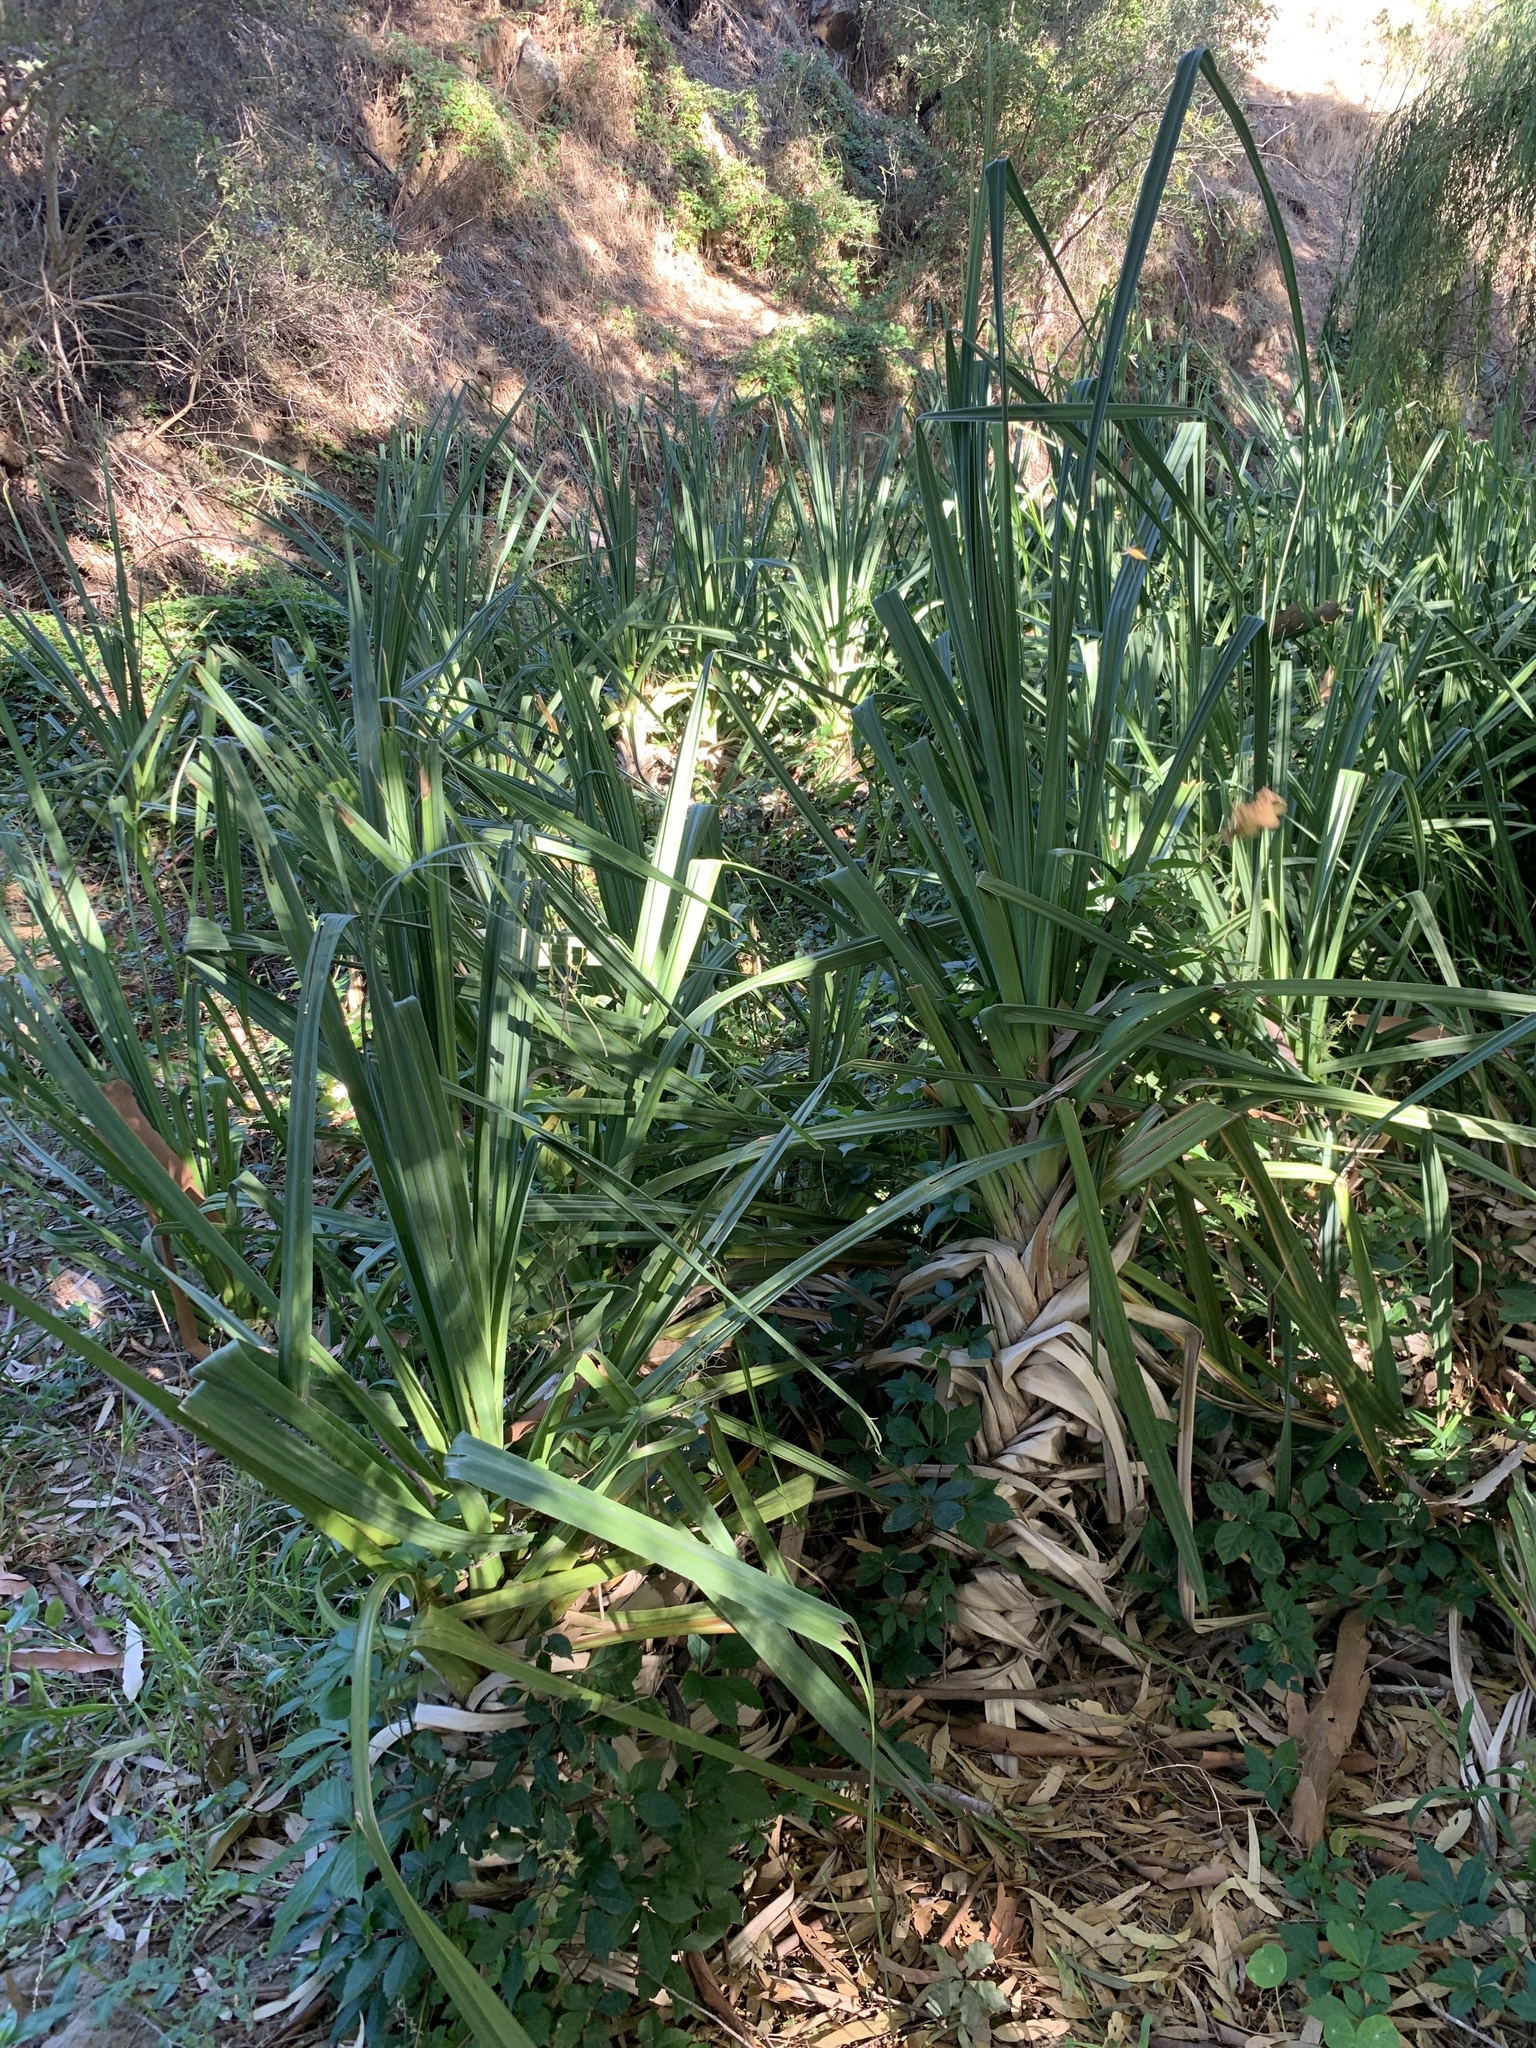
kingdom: Plantae
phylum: Tracheophyta
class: Liliopsida
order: Poales
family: Thurniaceae
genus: Prionium
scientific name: Prionium serratum
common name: Palmiet
